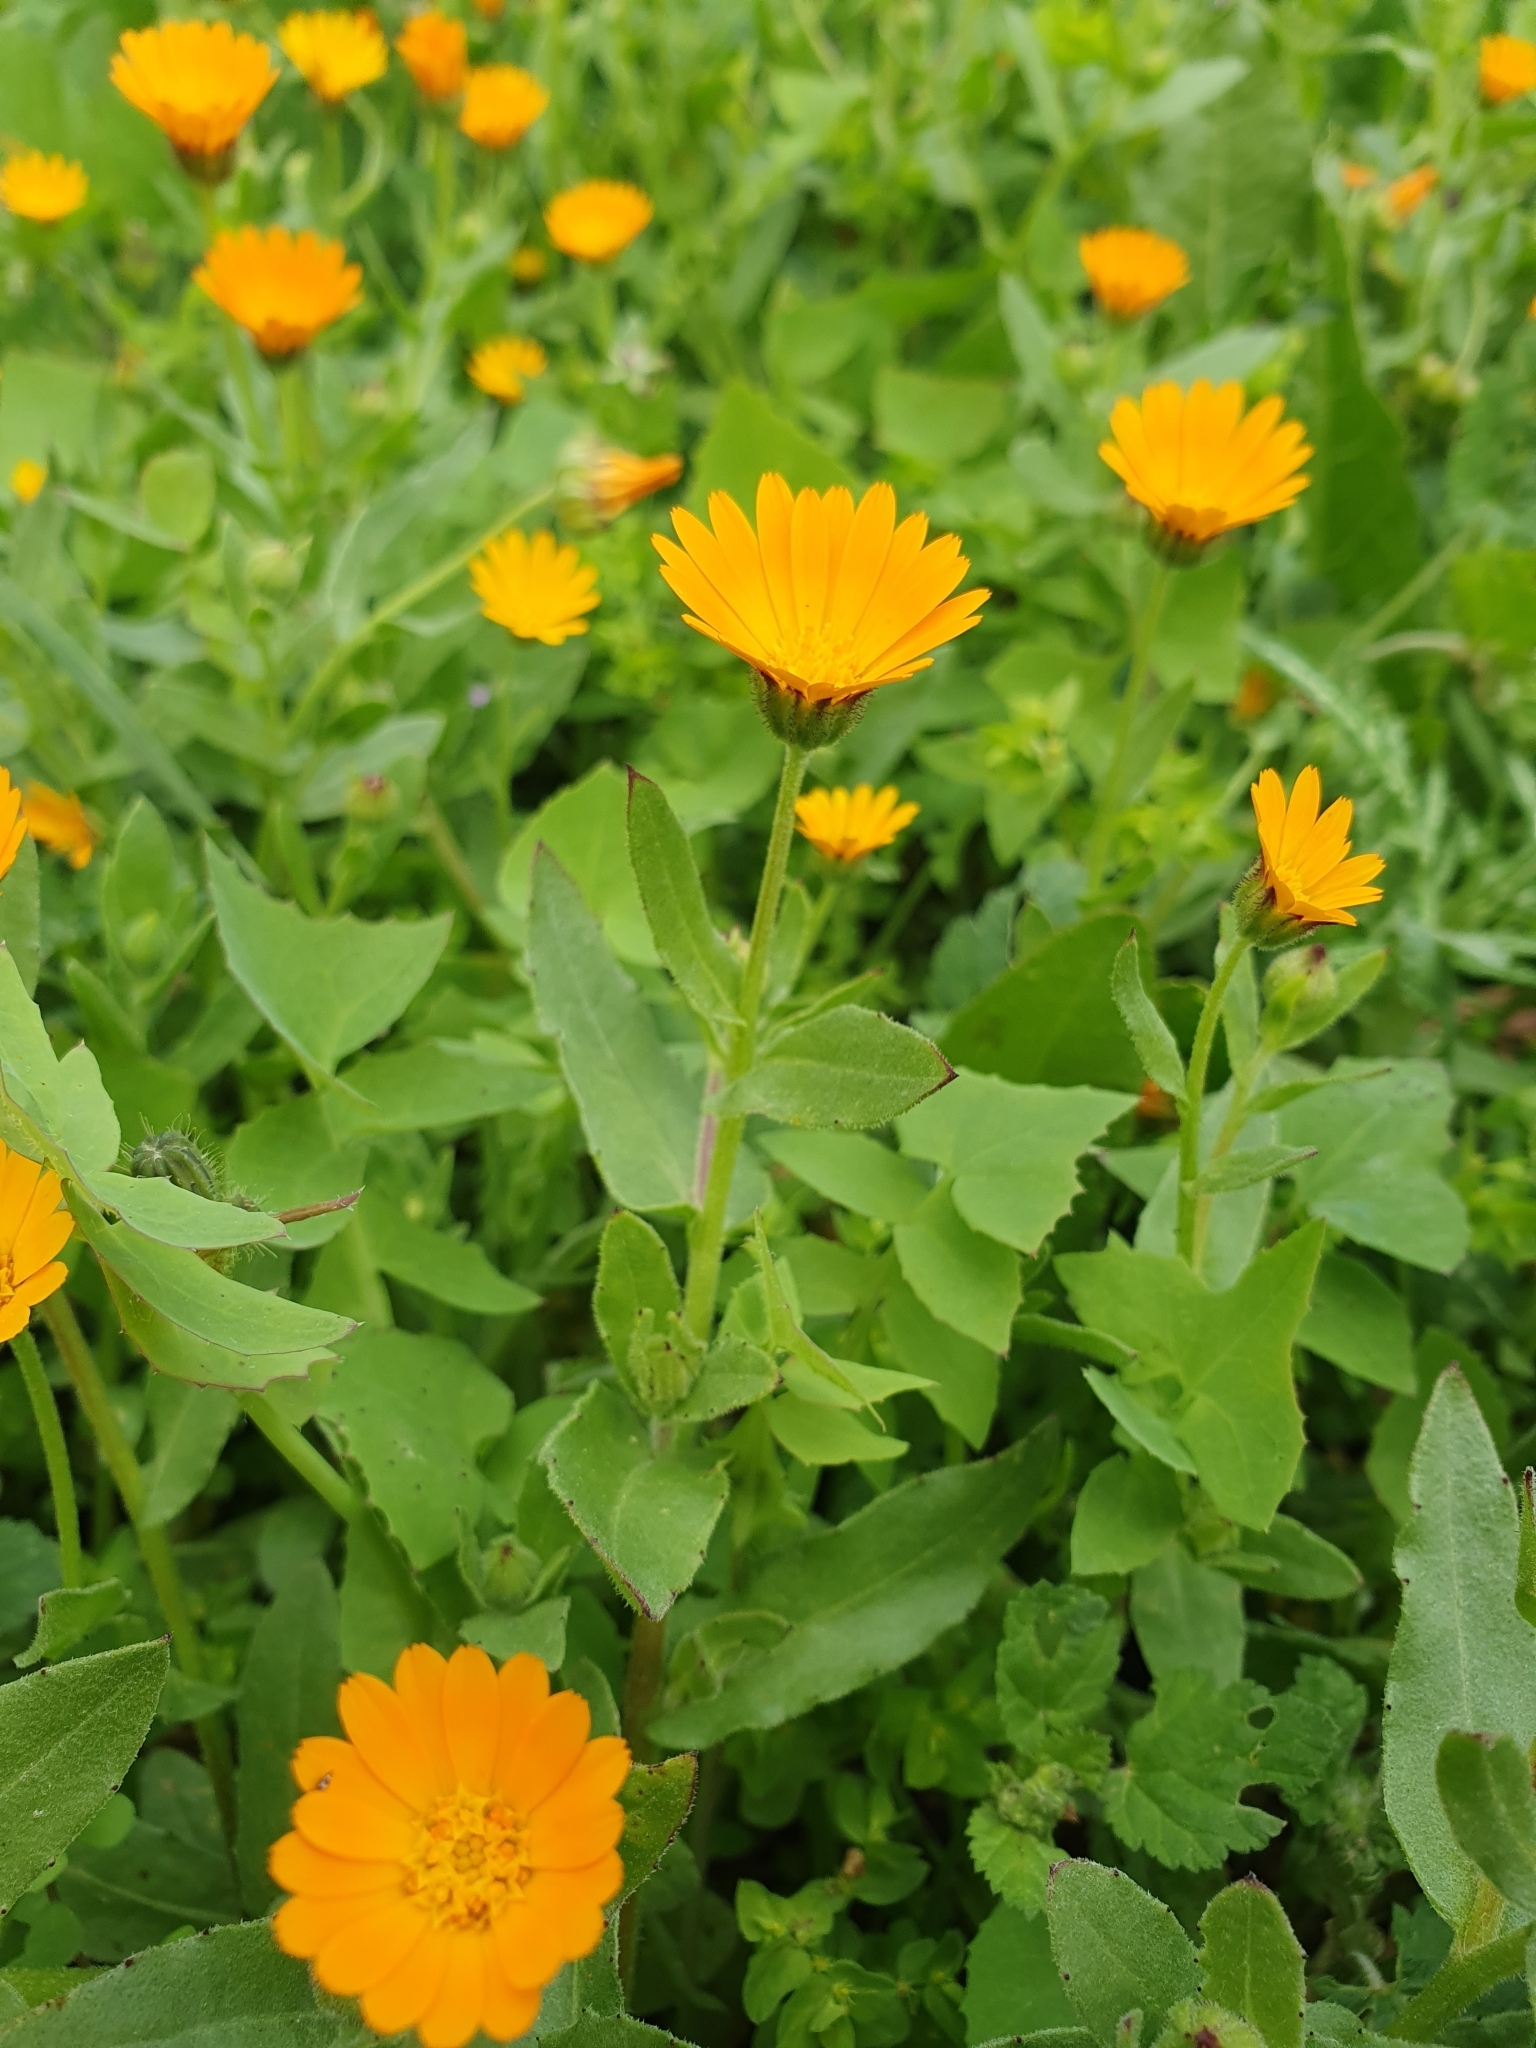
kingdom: Plantae
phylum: Tracheophyta
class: Magnoliopsida
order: Asterales
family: Asteraceae
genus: Calendula
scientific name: Calendula arvensis
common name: Field marigold
